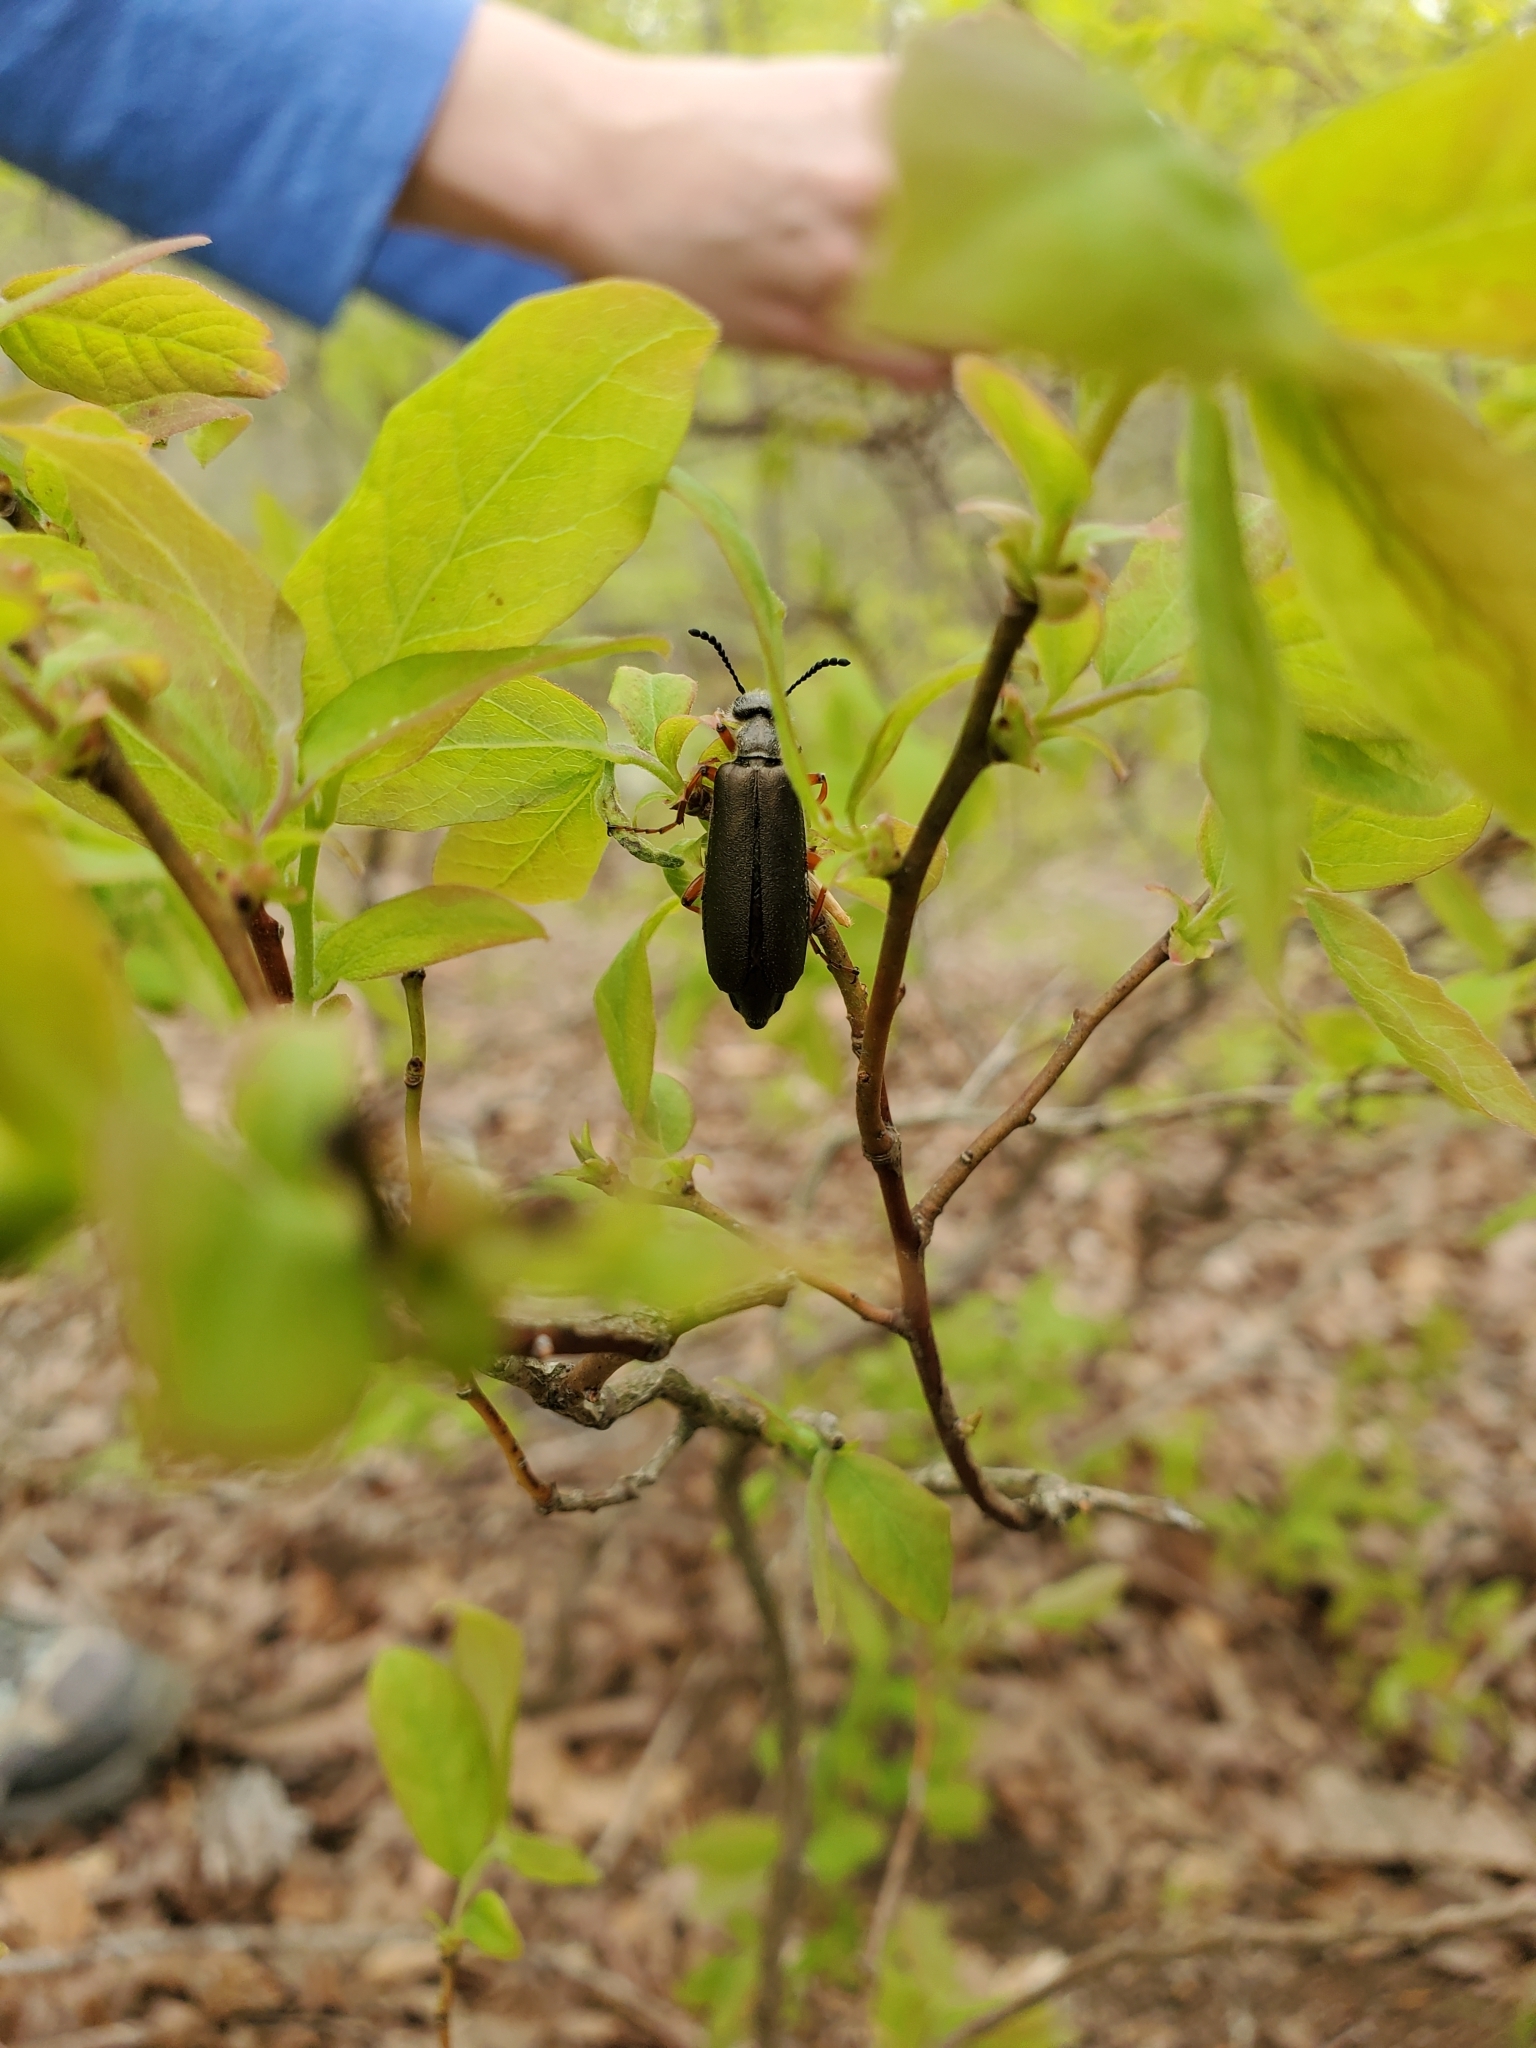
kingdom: Animalia
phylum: Arthropoda
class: Insecta
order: Coleoptera
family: Meloidae
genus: Lytta
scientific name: Lytta aenea
